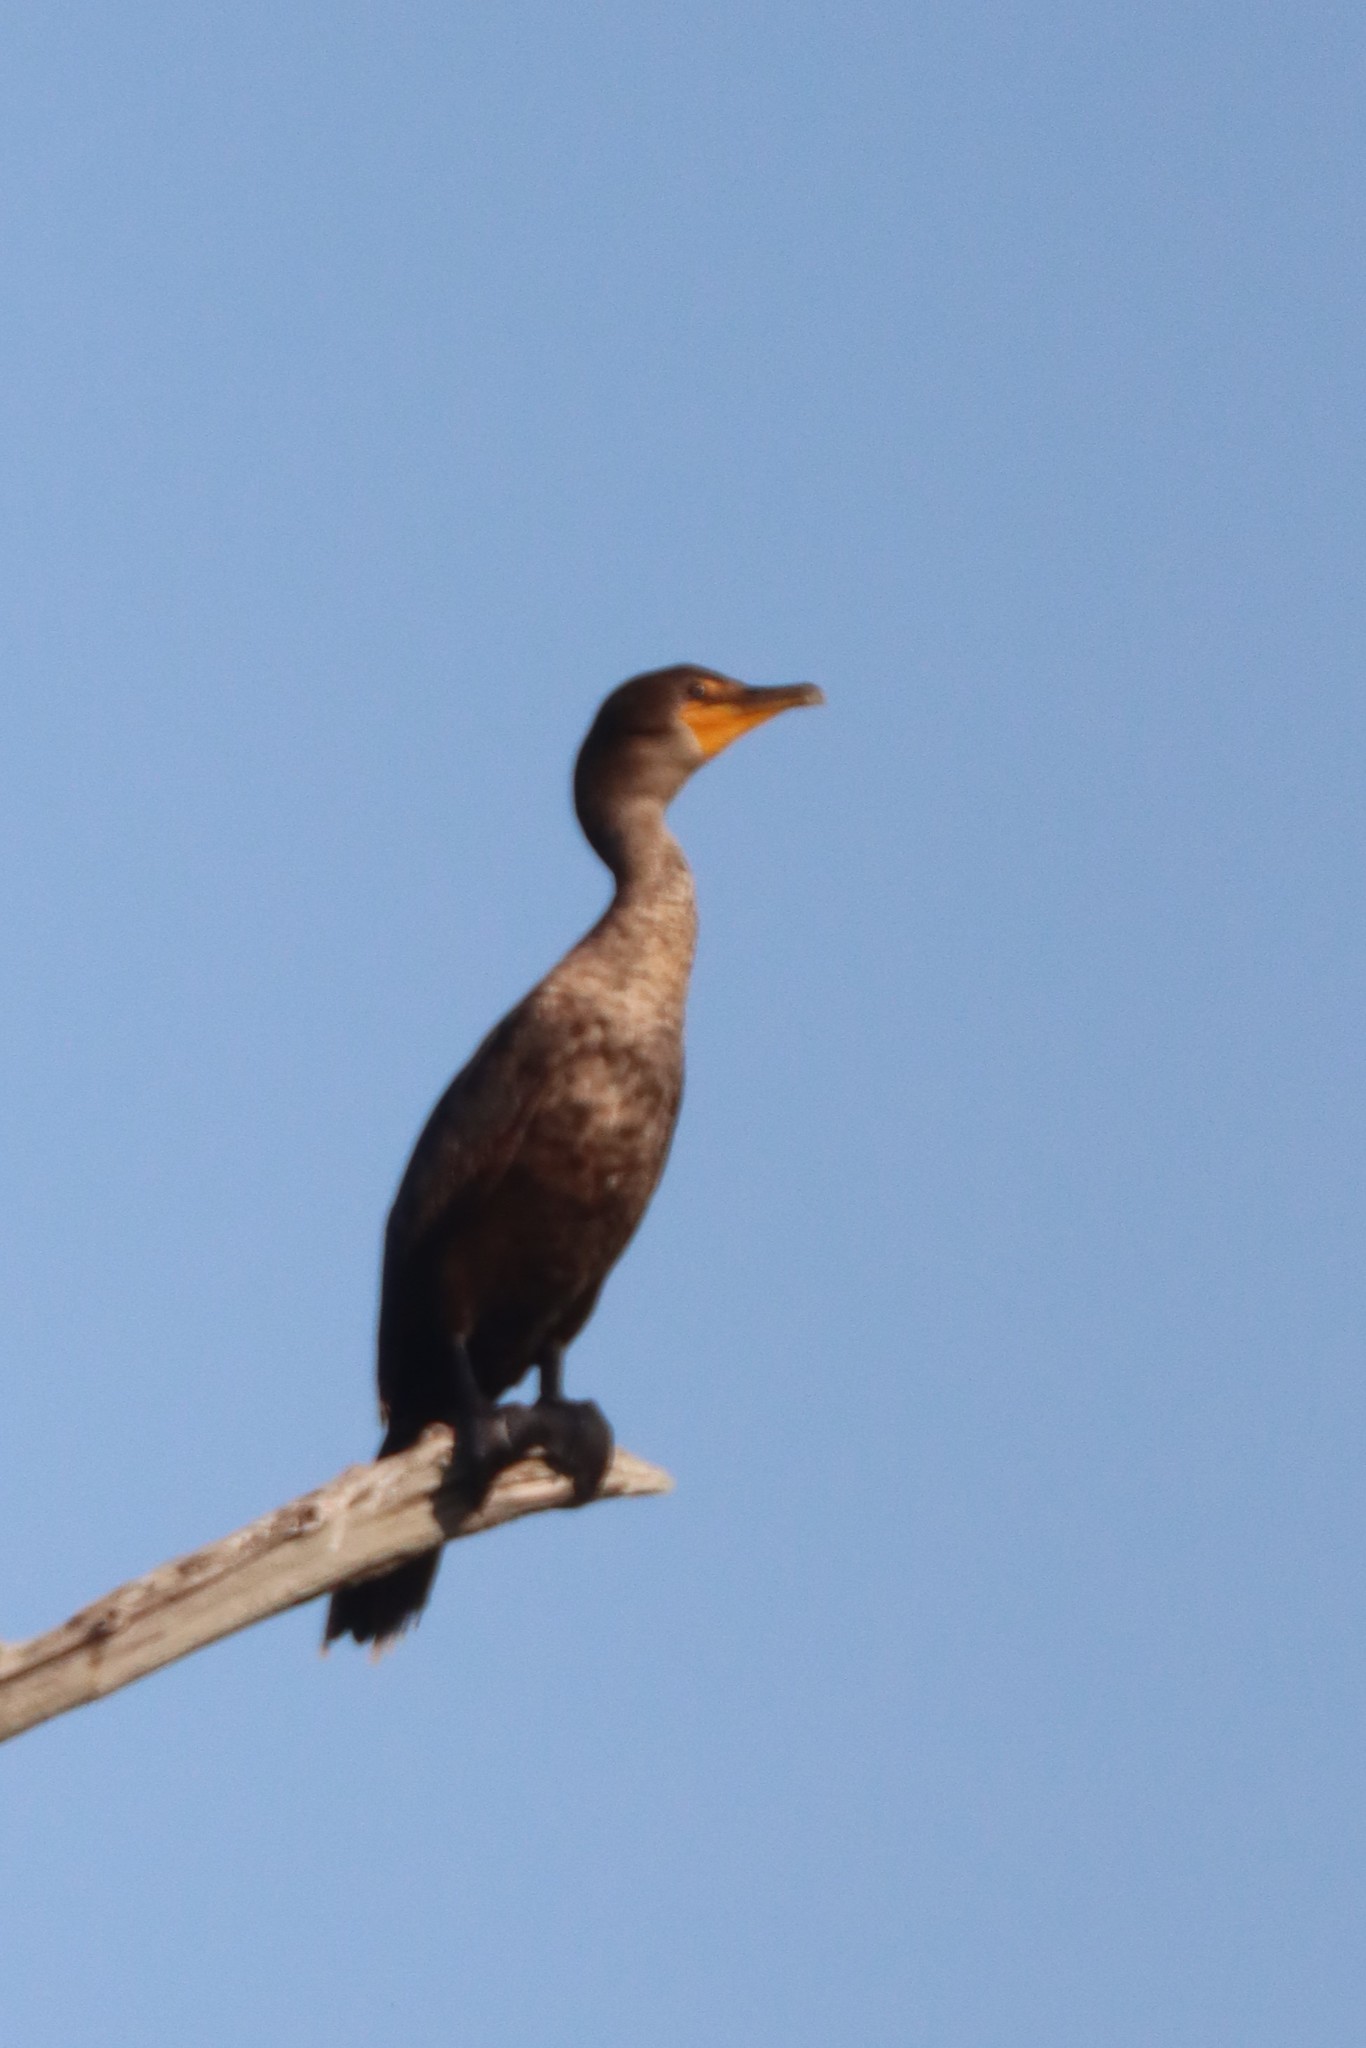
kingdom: Animalia
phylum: Chordata
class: Aves
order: Suliformes
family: Phalacrocoracidae
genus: Phalacrocorax
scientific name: Phalacrocorax auritus
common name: Double-crested cormorant
